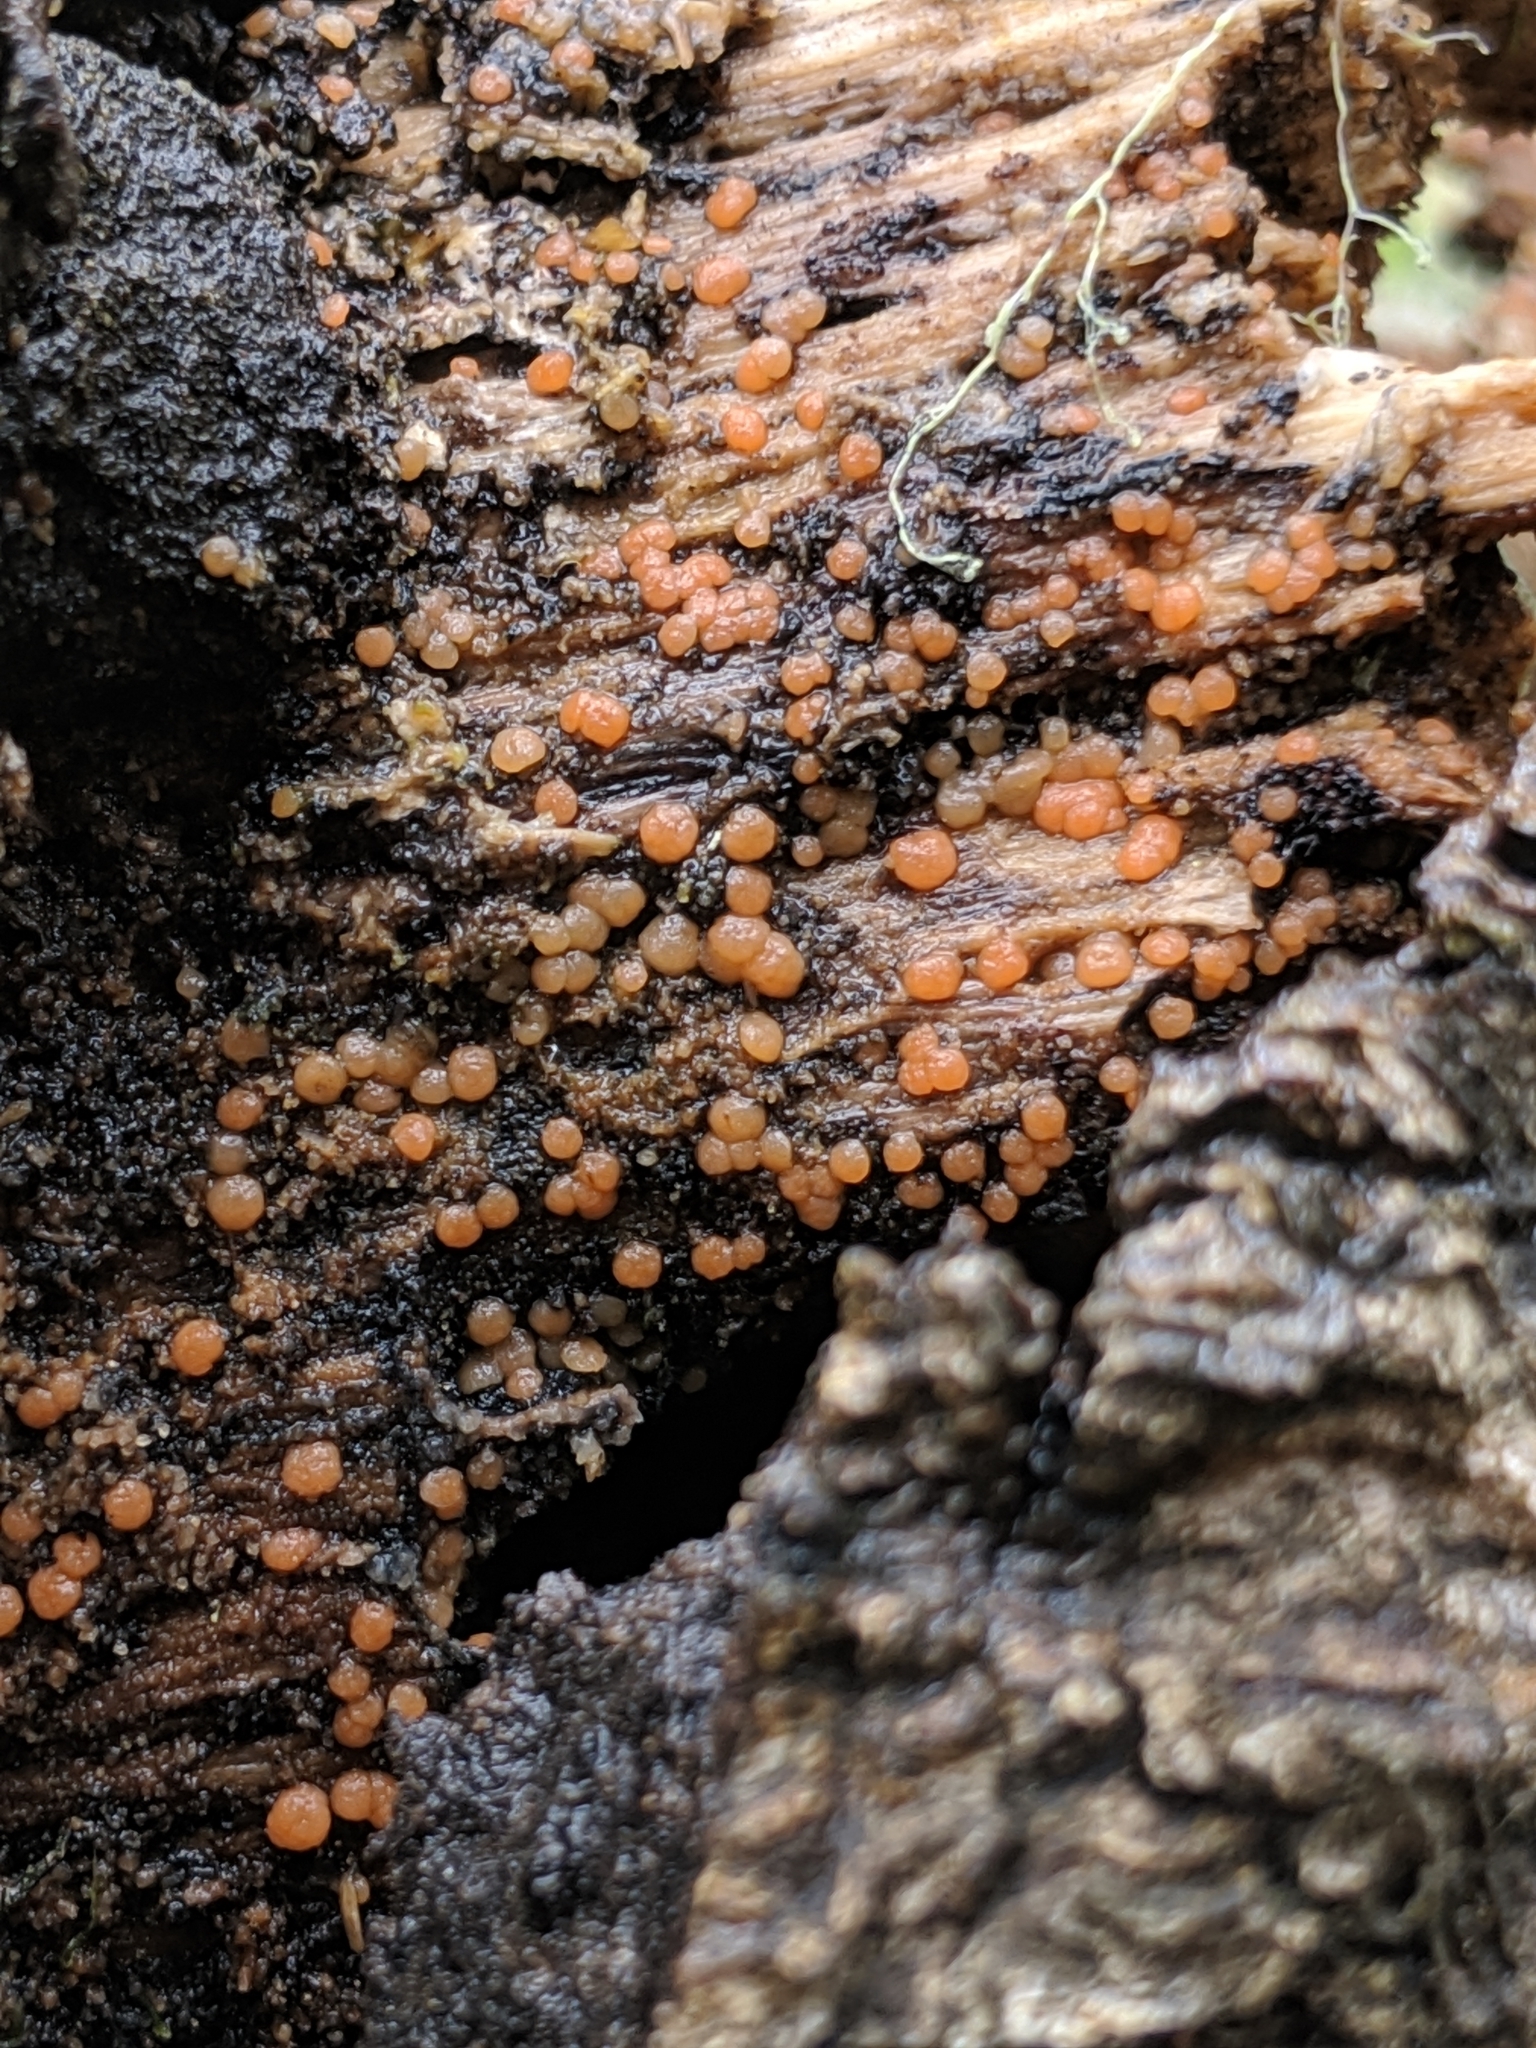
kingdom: Fungi
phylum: Ascomycota
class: Sordariomycetes
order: Hypocreales
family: Nectriaceae
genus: Nectria
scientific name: Nectria cinnabarina
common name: Coral spot
